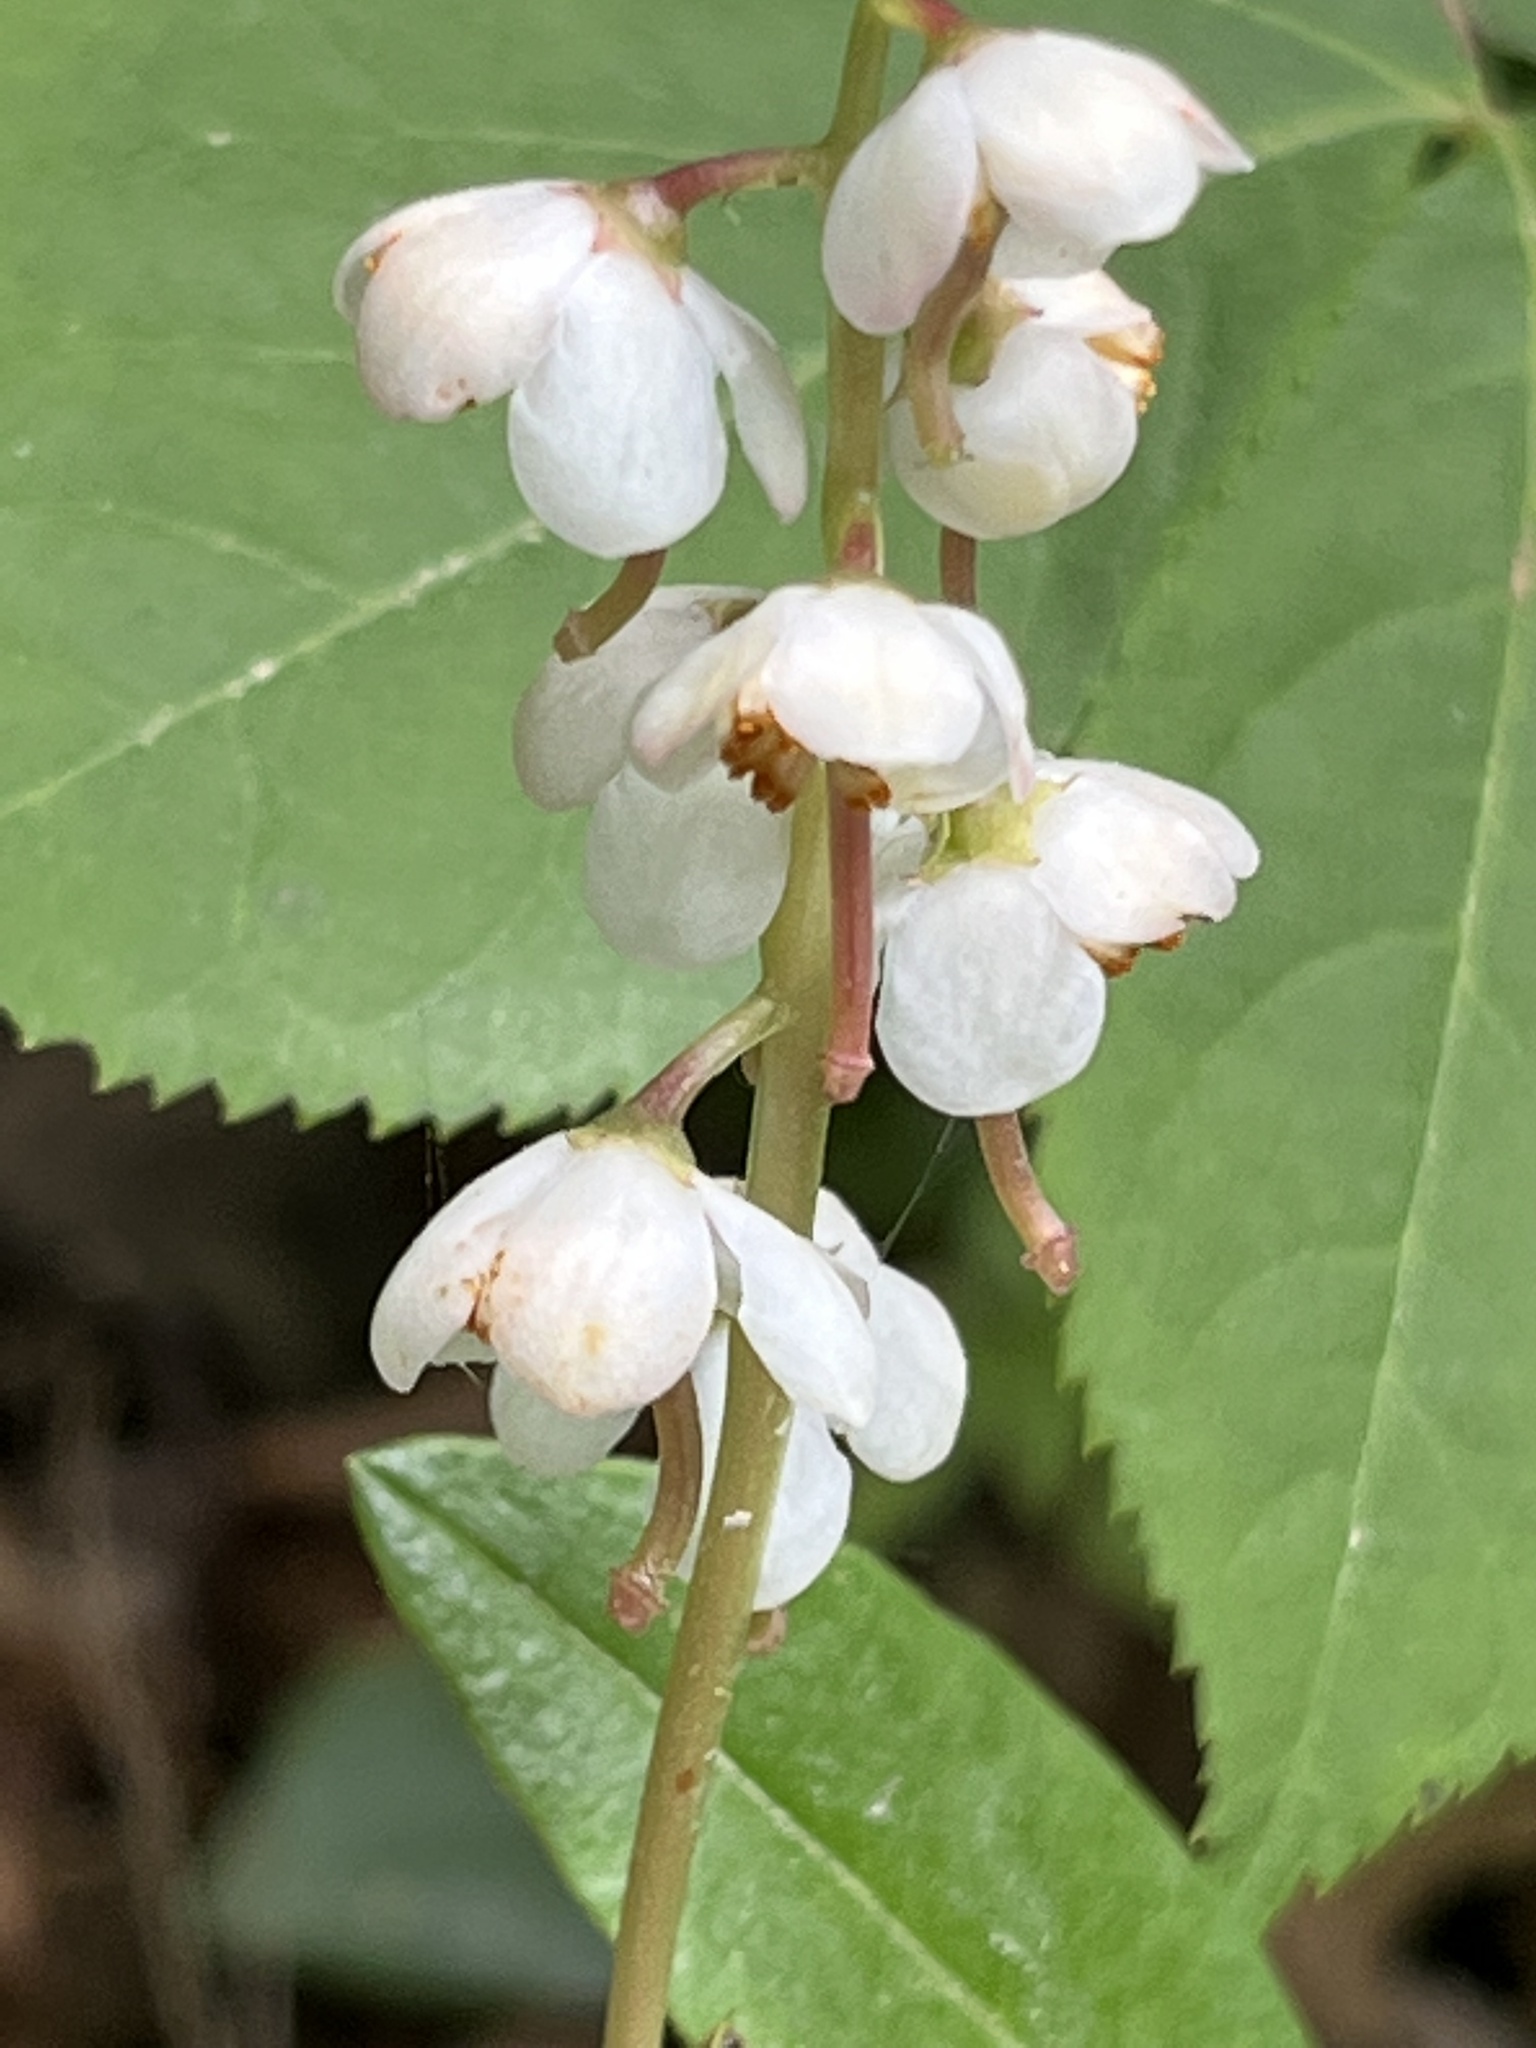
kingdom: Plantae
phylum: Tracheophyta
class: Magnoliopsida
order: Ericales
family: Ericaceae
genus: Pyrola
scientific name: Pyrola elliptica
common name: Shinleaf
